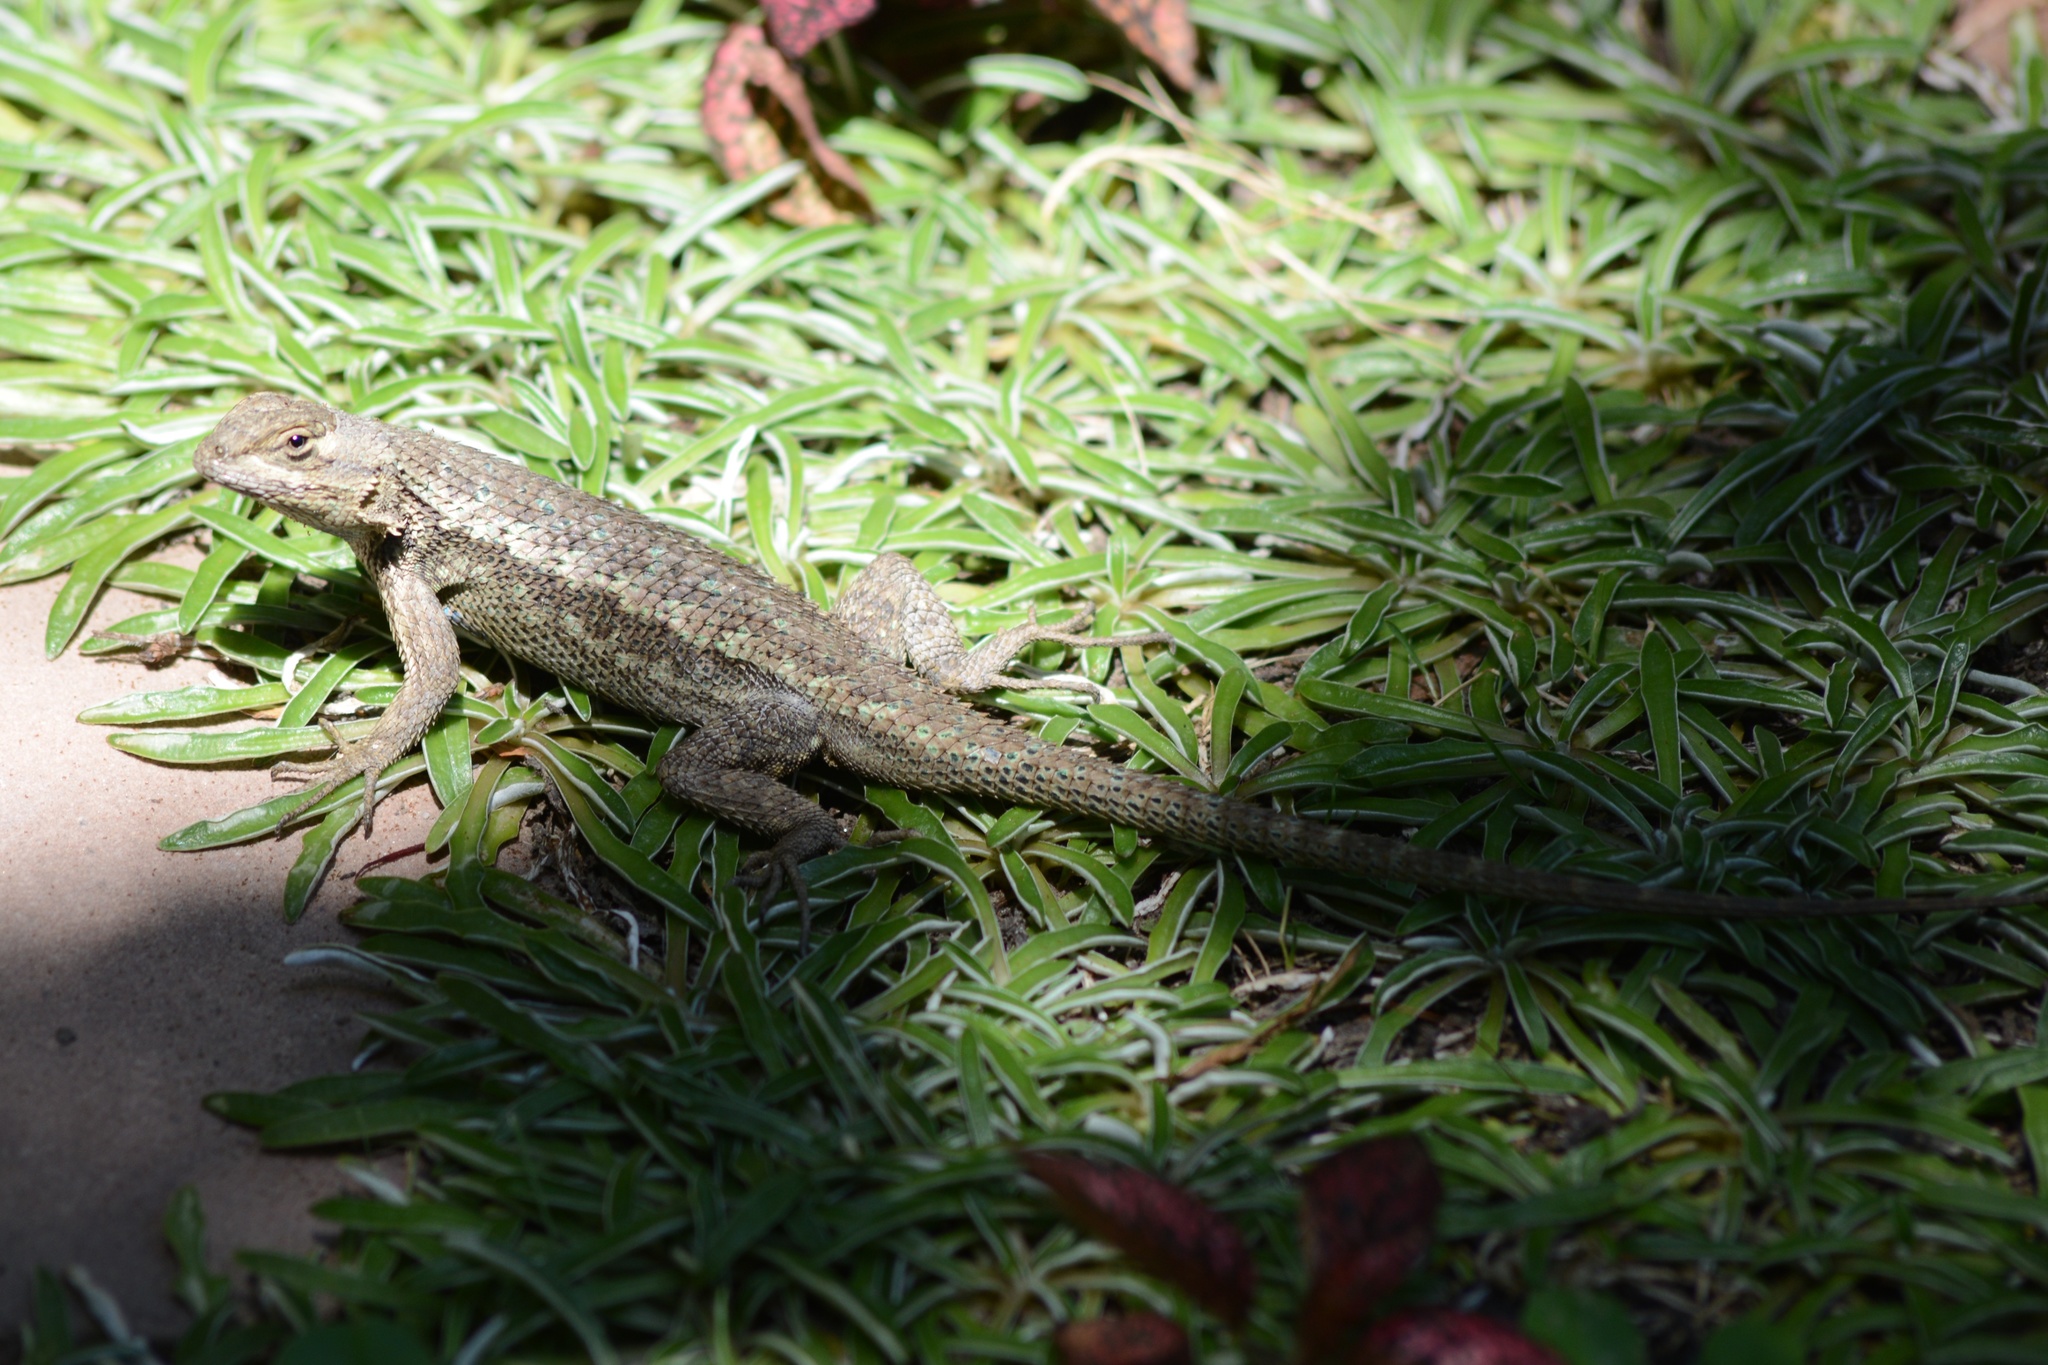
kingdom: Animalia
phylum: Chordata
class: Squamata
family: Phrynosomatidae
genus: Sceloporus
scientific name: Sceloporus occidentalis
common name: Western fence lizard
